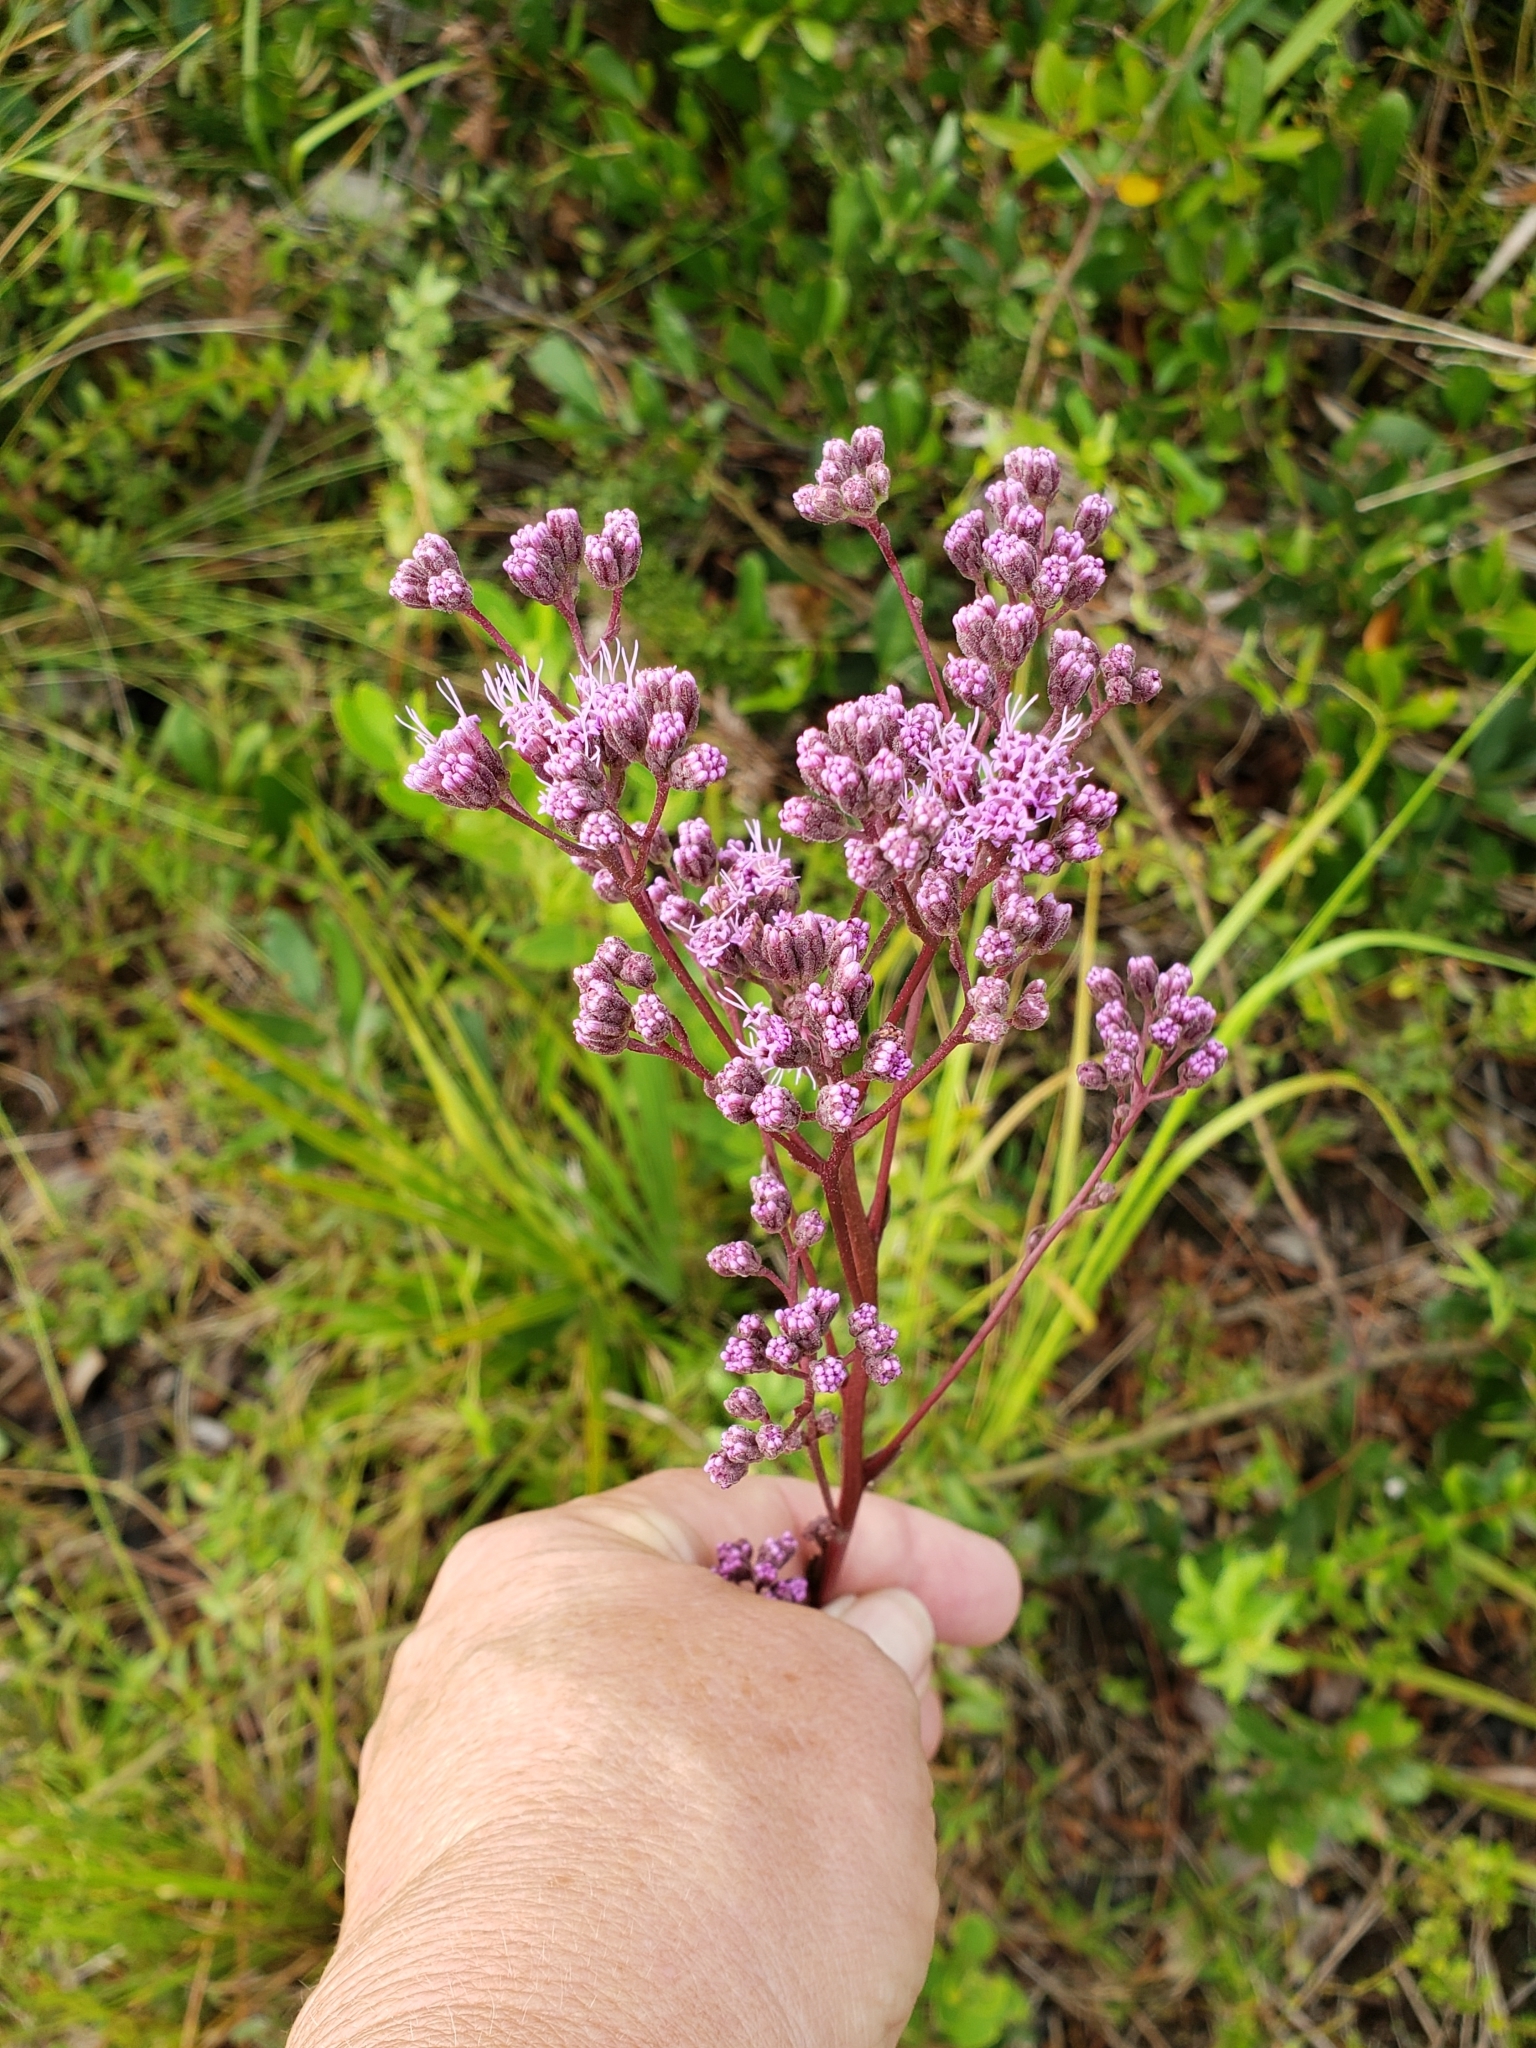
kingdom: Plantae
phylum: Tracheophyta
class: Magnoliopsida
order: Asterales
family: Asteraceae
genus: Carphephorus
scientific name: Carphephorus odoratissimus
